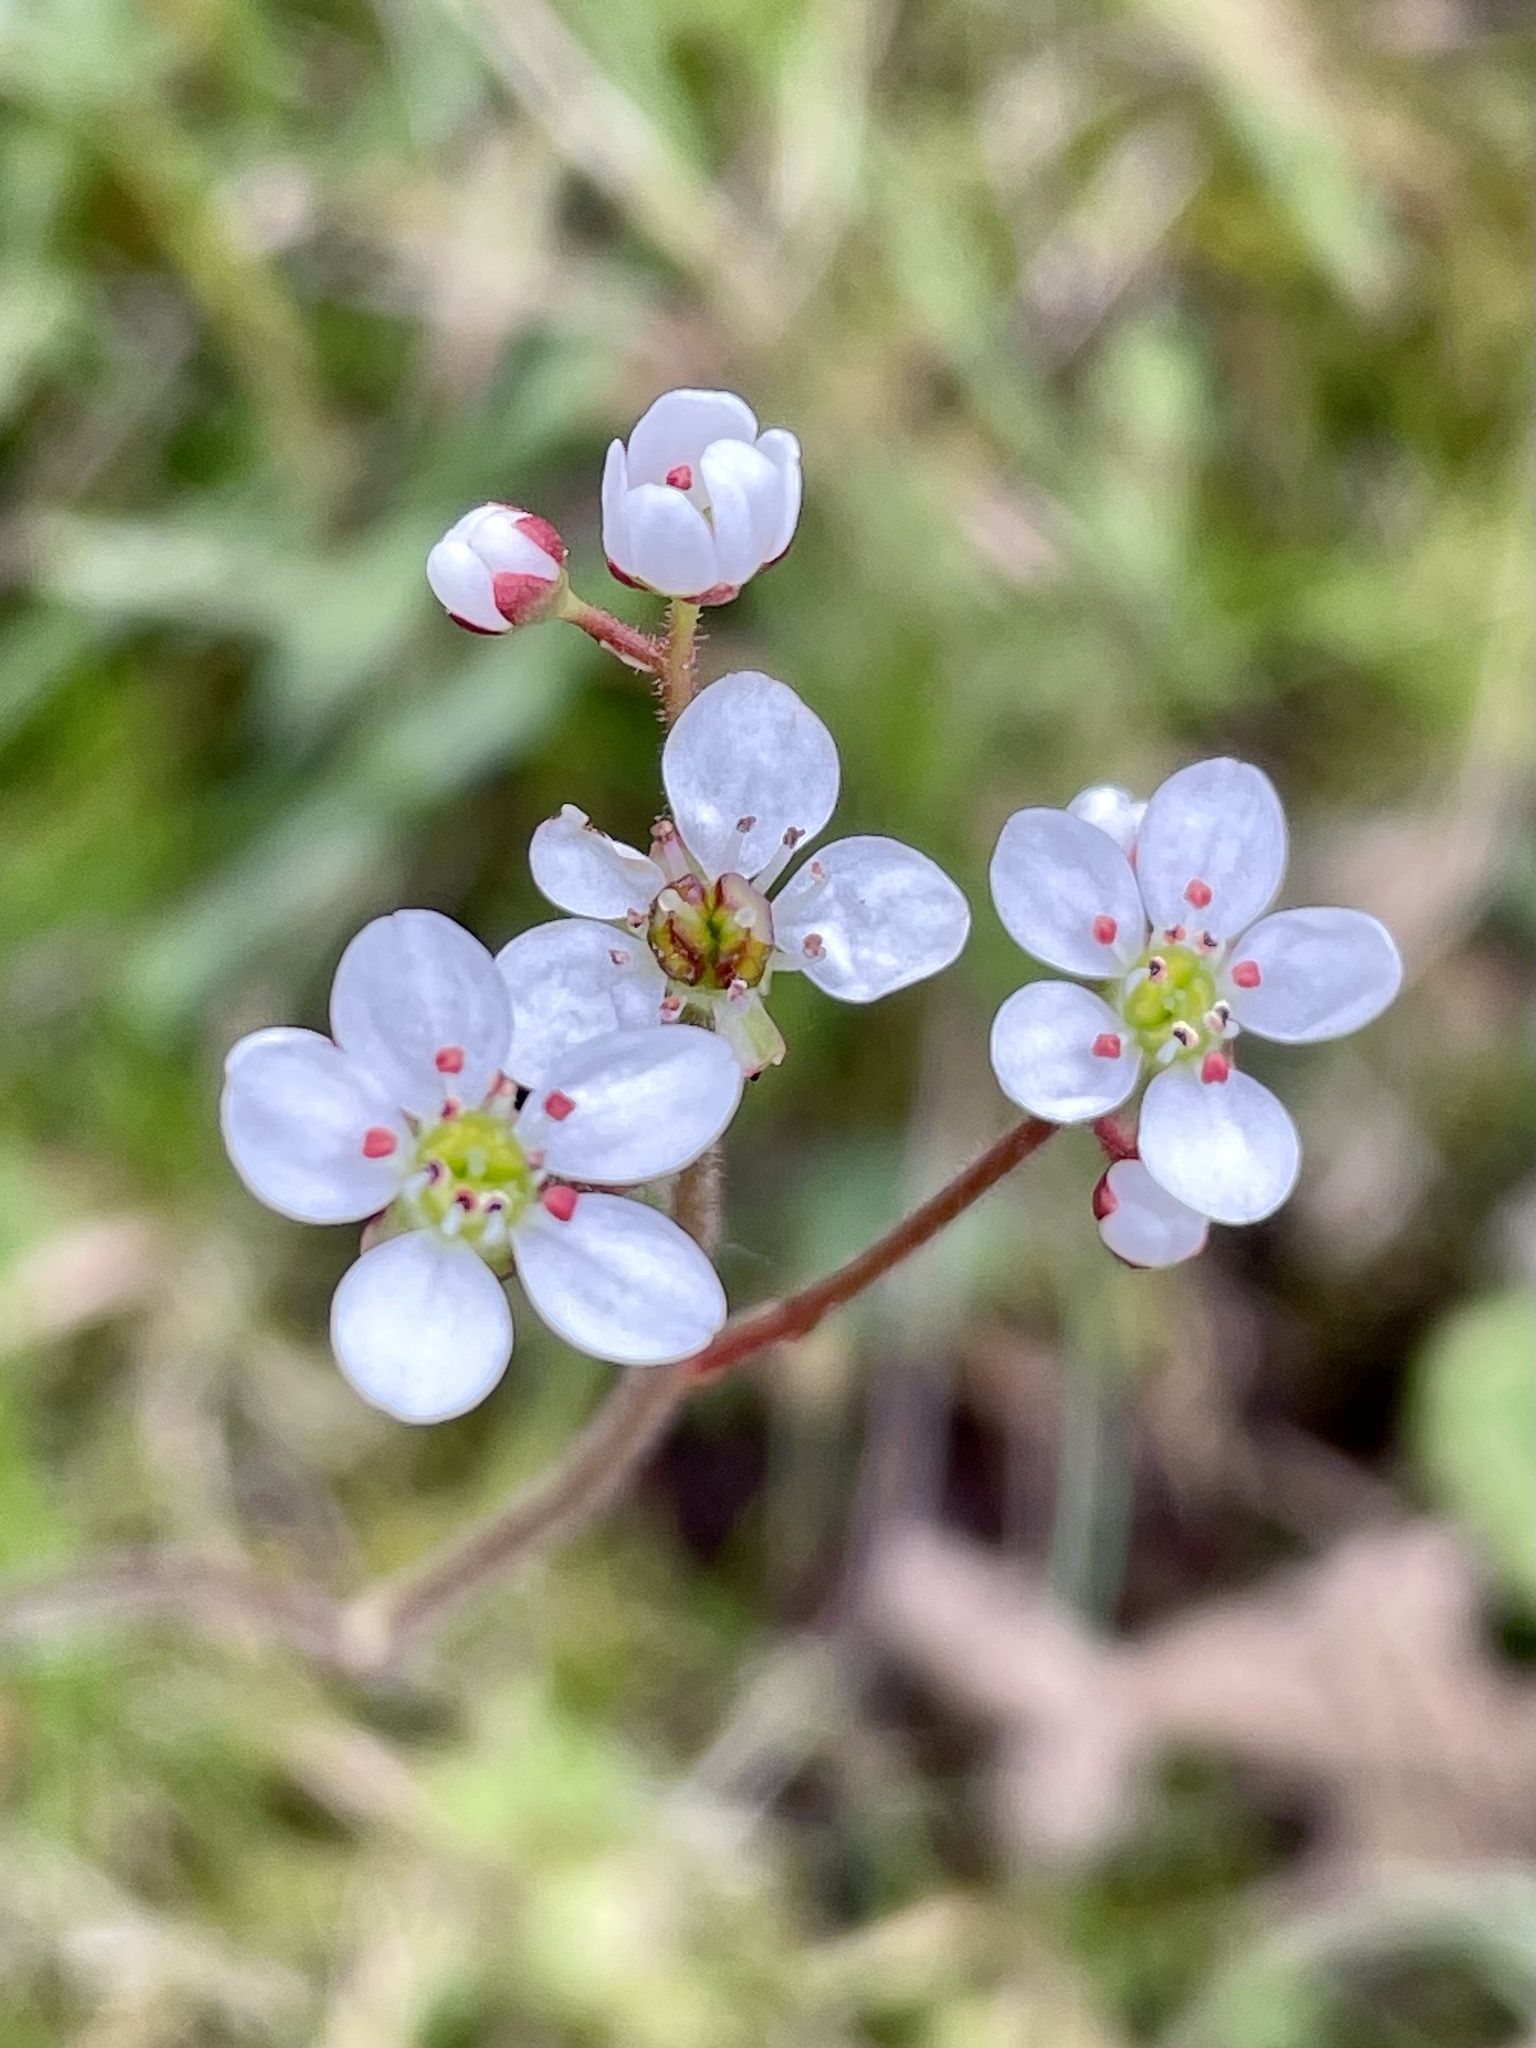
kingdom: Plantae
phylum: Tracheophyta
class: Magnoliopsida
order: Saxifragales
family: Saxifragaceae
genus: Micranthes
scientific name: Micranthes californica
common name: California saxifrage
